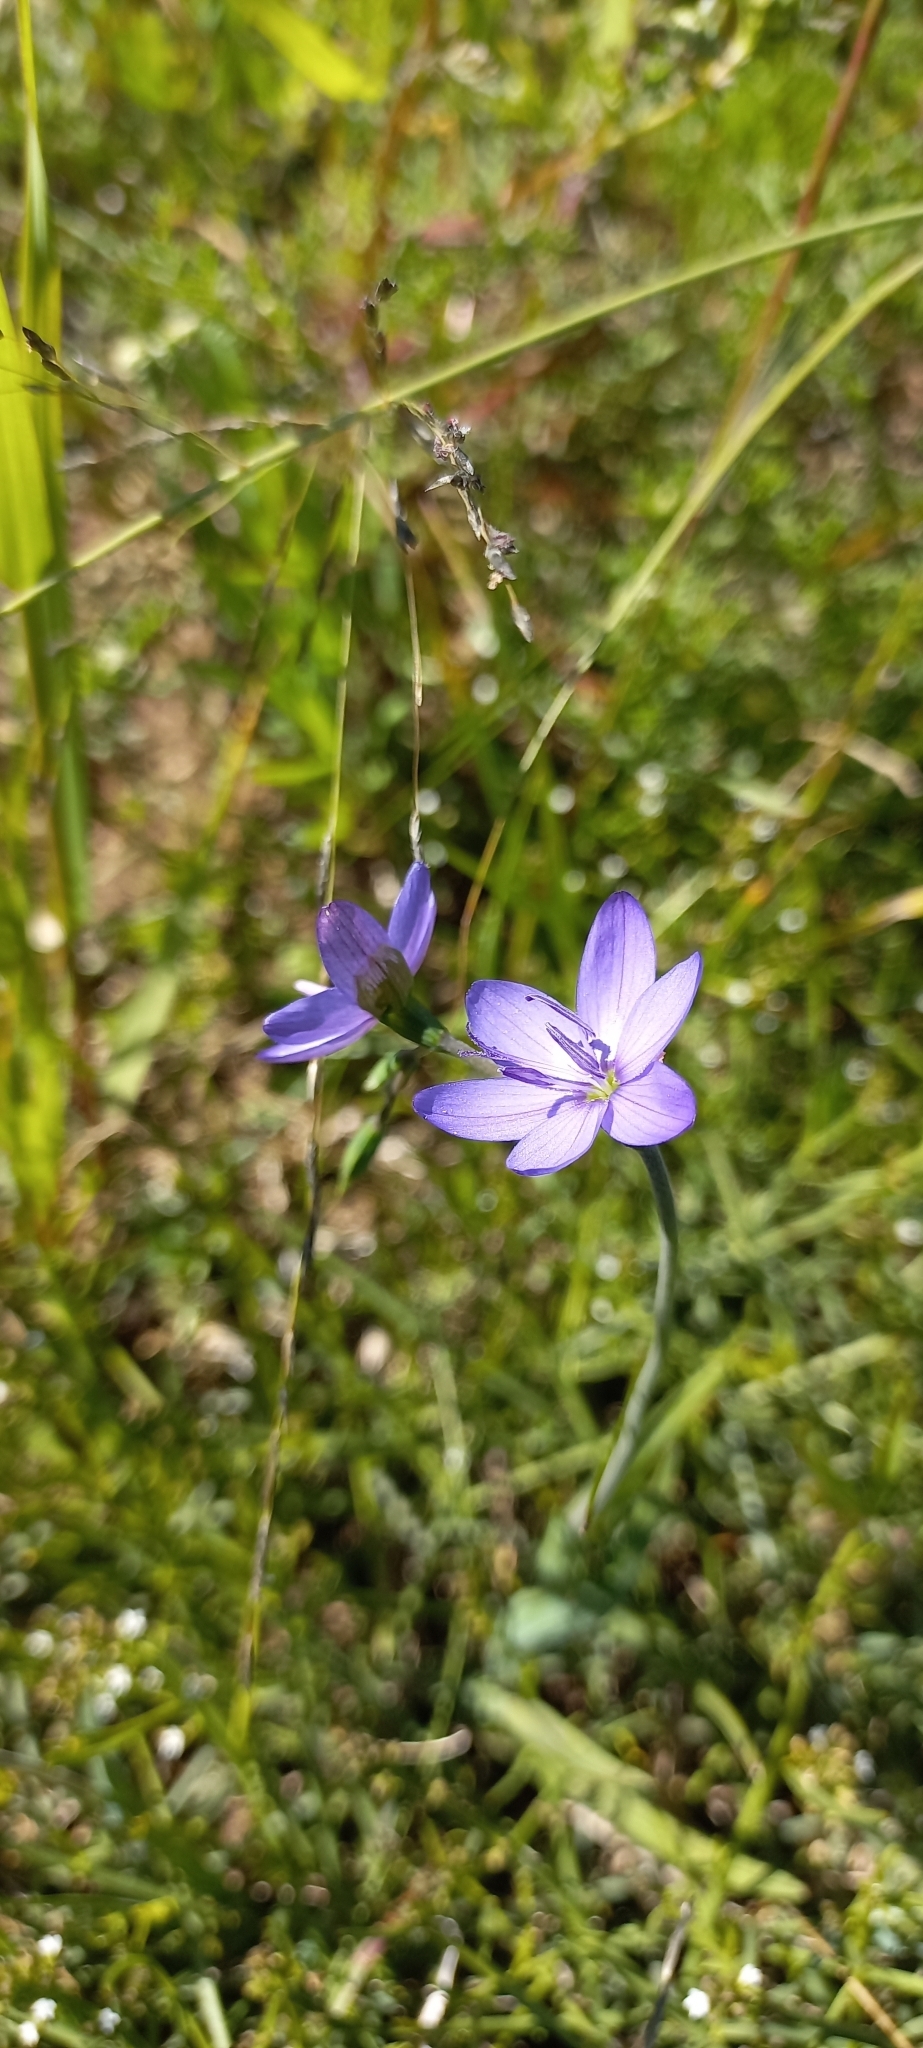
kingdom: Plantae
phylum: Tracheophyta
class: Liliopsida
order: Asparagales
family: Iridaceae
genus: Geissorhiza
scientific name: Geissorhiza aspera
